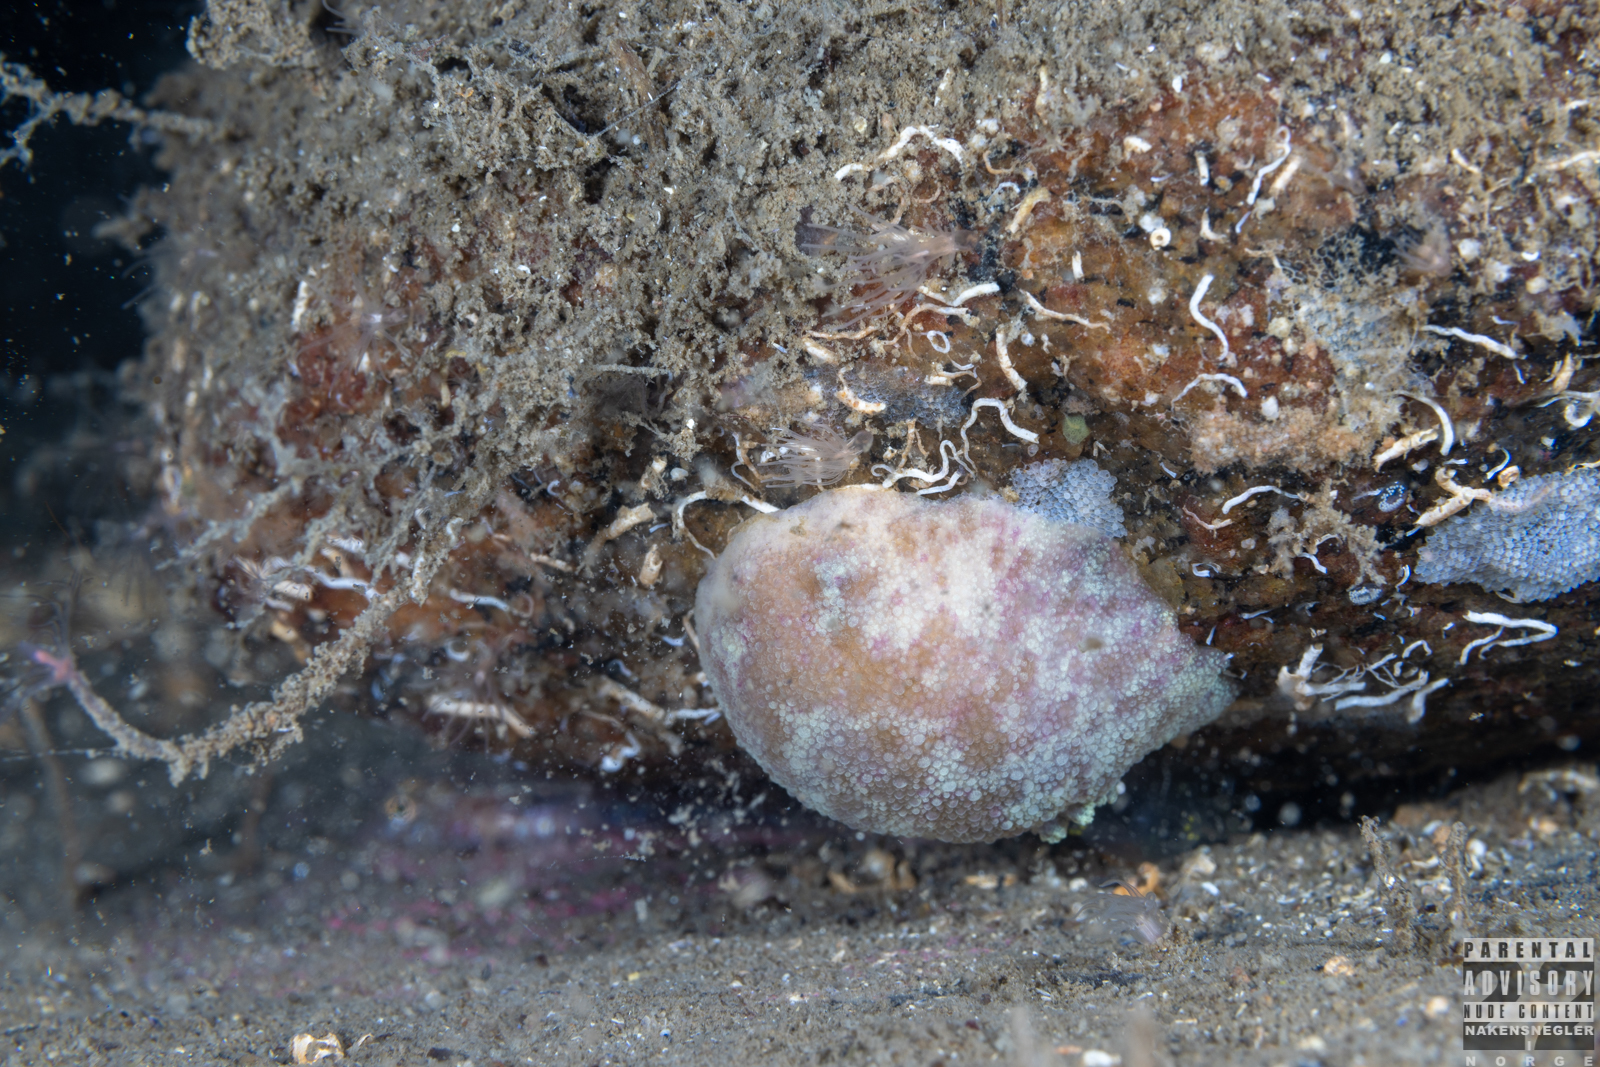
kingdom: Animalia
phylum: Mollusca
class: Gastropoda
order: Nudibranchia
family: Dorididae
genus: Doris
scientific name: Doris pseudoargus
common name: Sea lemon
